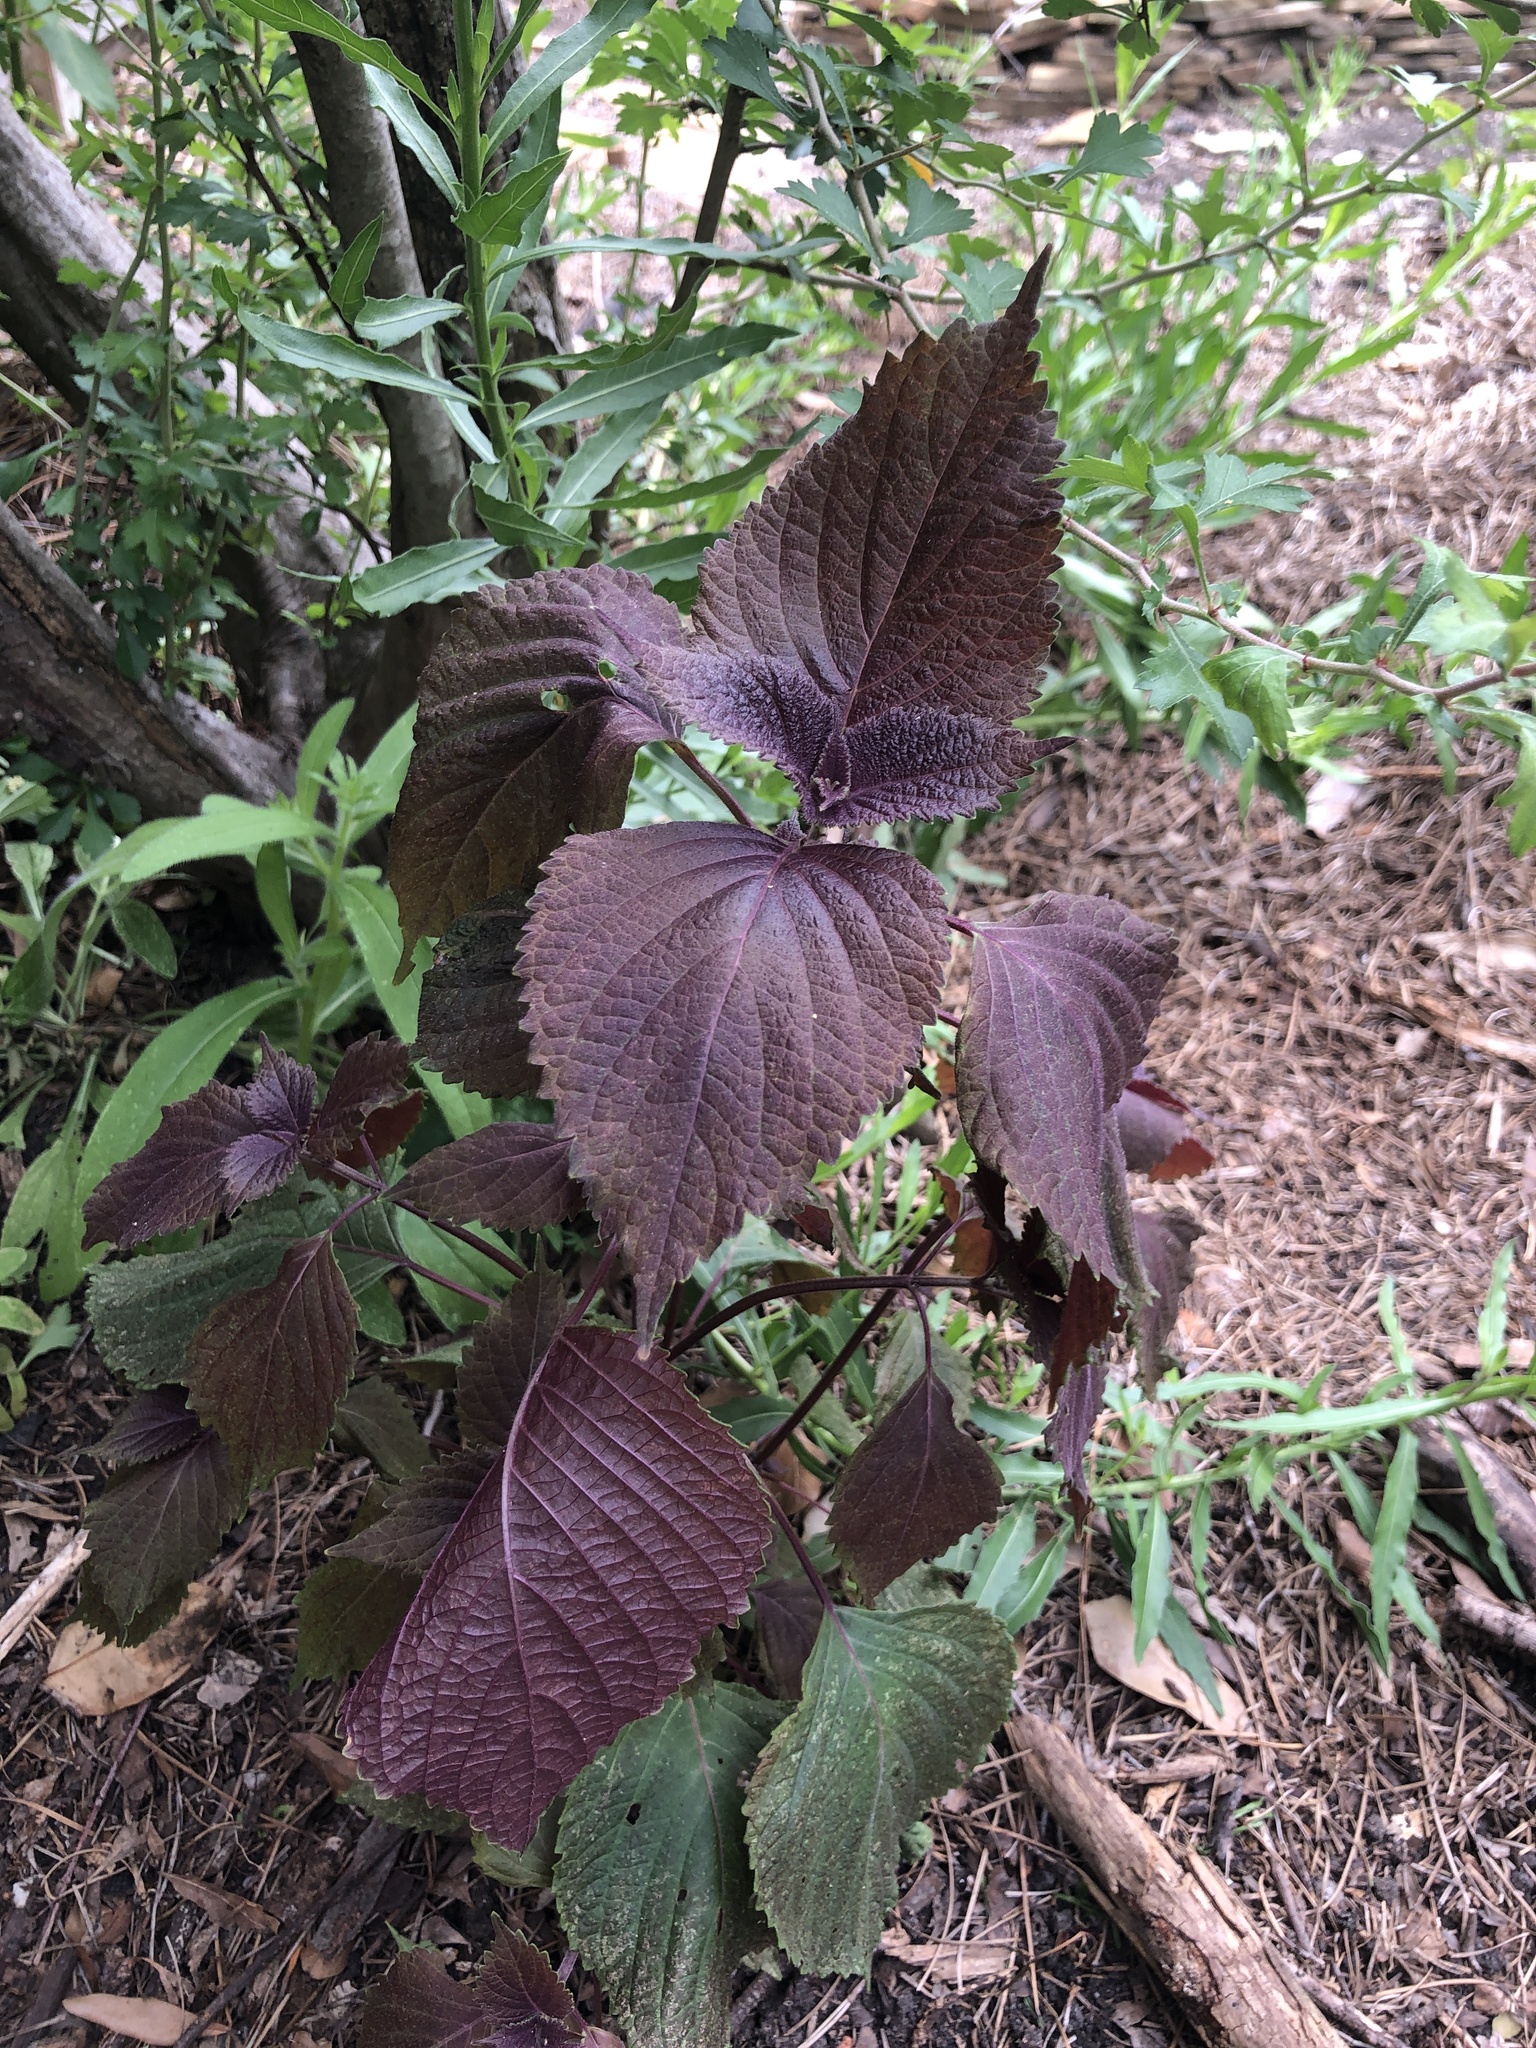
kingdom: Plantae
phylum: Tracheophyta
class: Magnoliopsida
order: Lamiales
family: Lamiaceae
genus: Perilla
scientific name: Perilla frutescens
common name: Perilla
